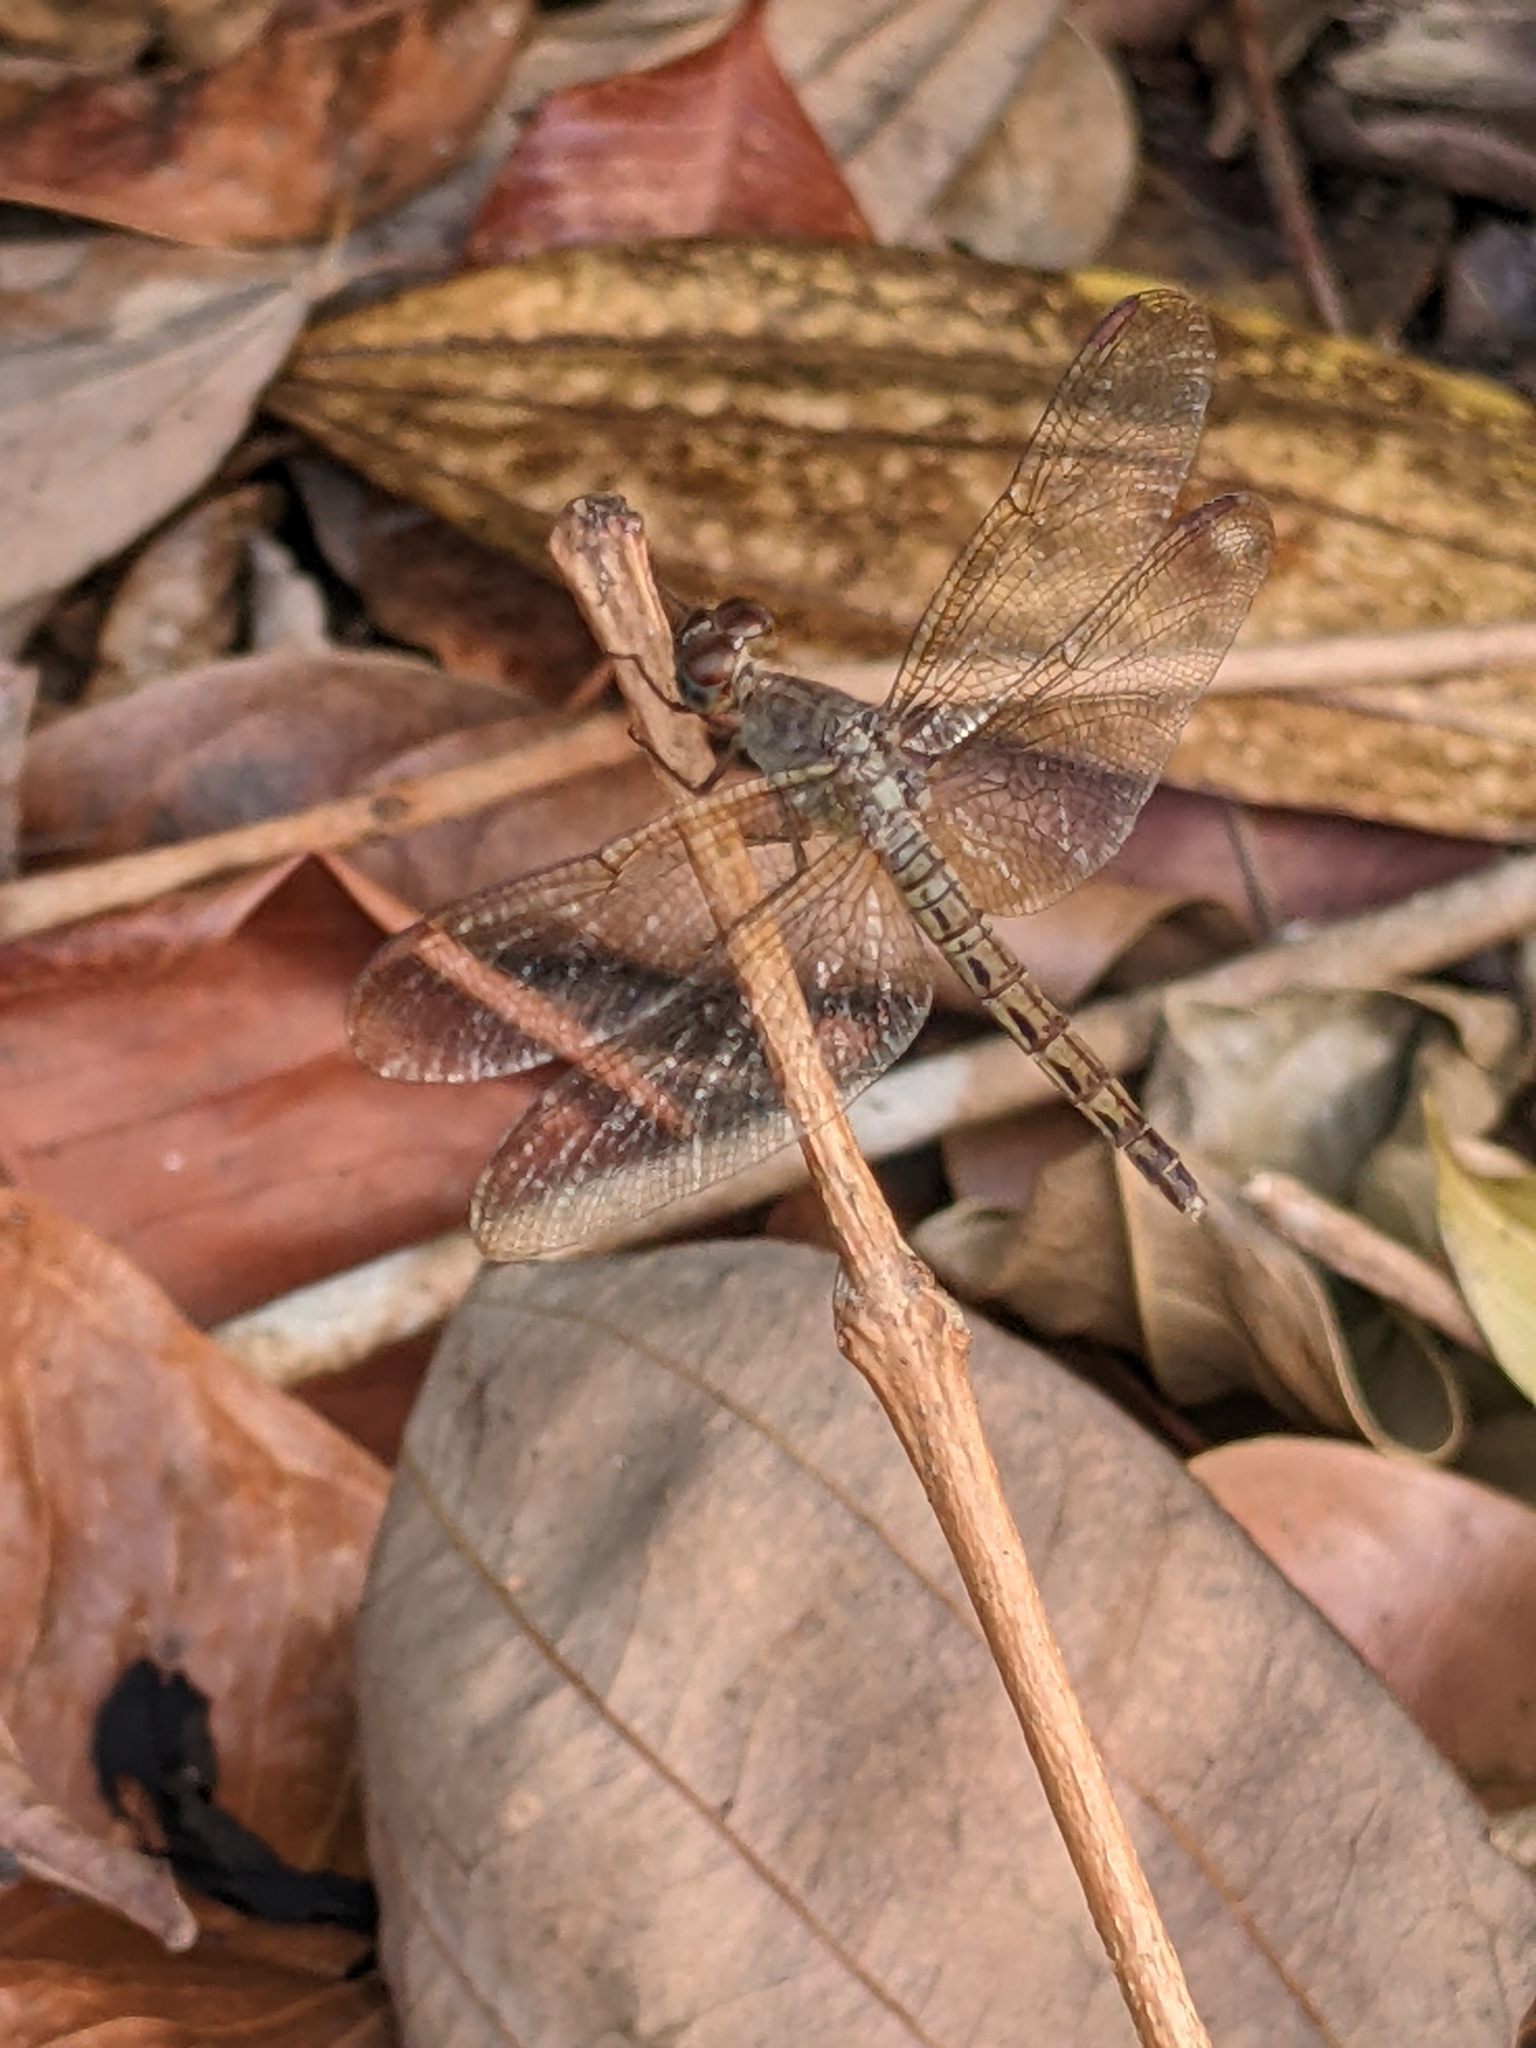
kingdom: Animalia
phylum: Arthropoda
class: Insecta
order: Odonata
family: Libellulidae
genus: Neurothemis
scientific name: Neurothemis fluctuans
